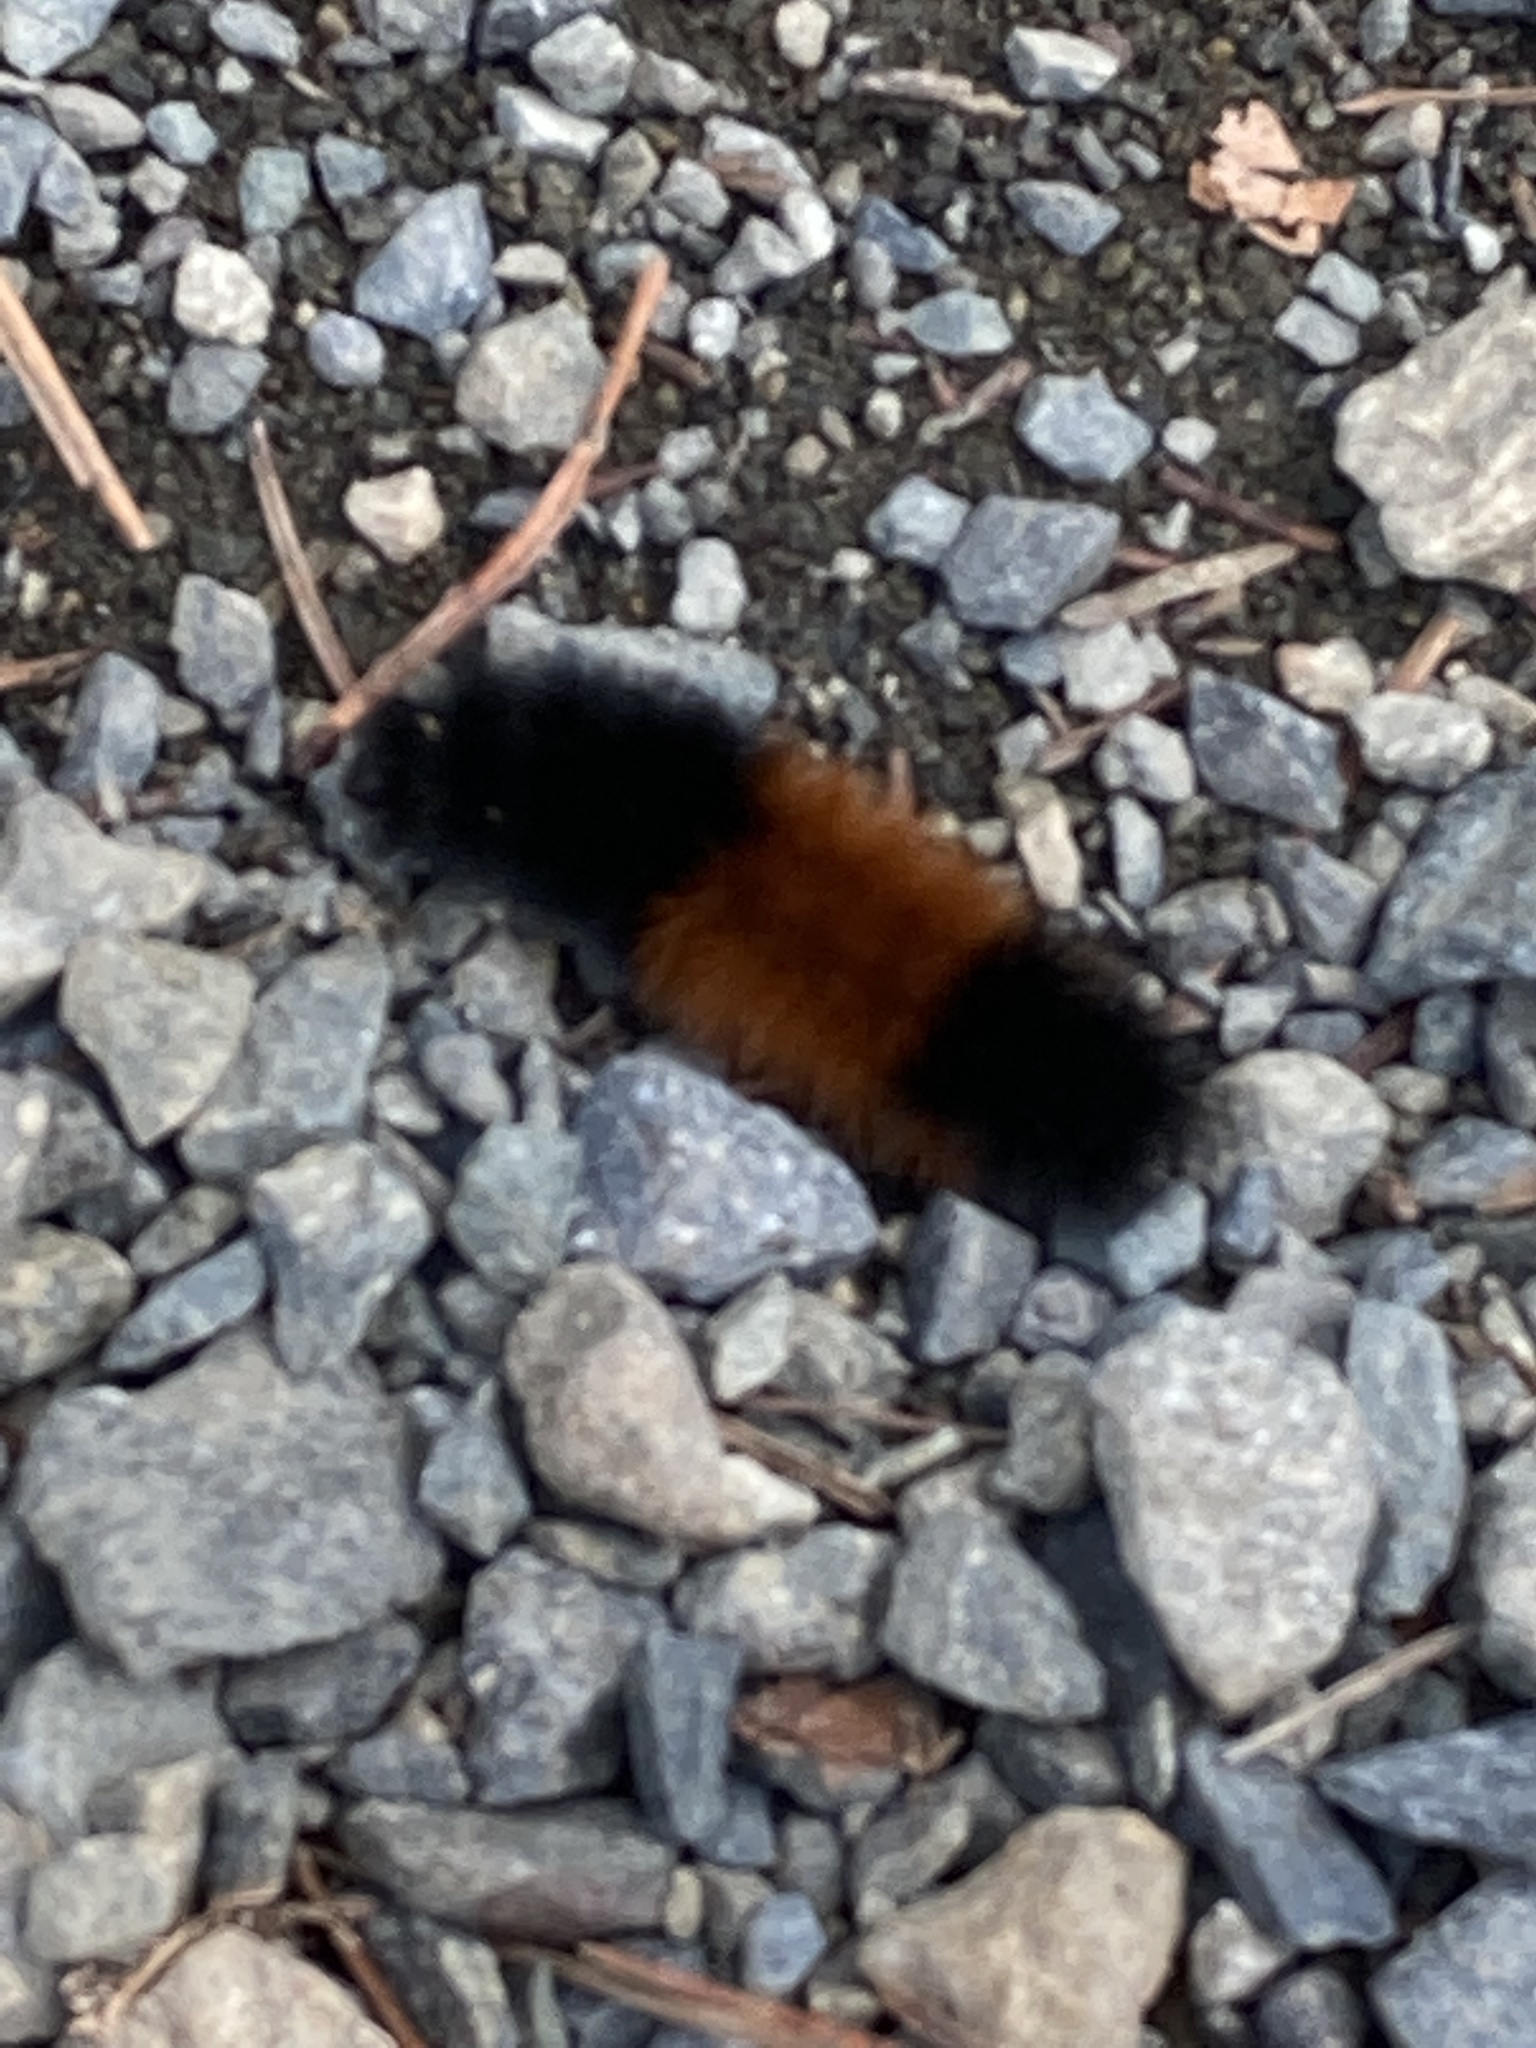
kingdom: Animalia
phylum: Arthropoda
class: Insecta
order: Lepidoptera
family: Erebidae
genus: Pyrrharctia
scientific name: Pyrrharctia isabella
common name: Isabella tiger moth
